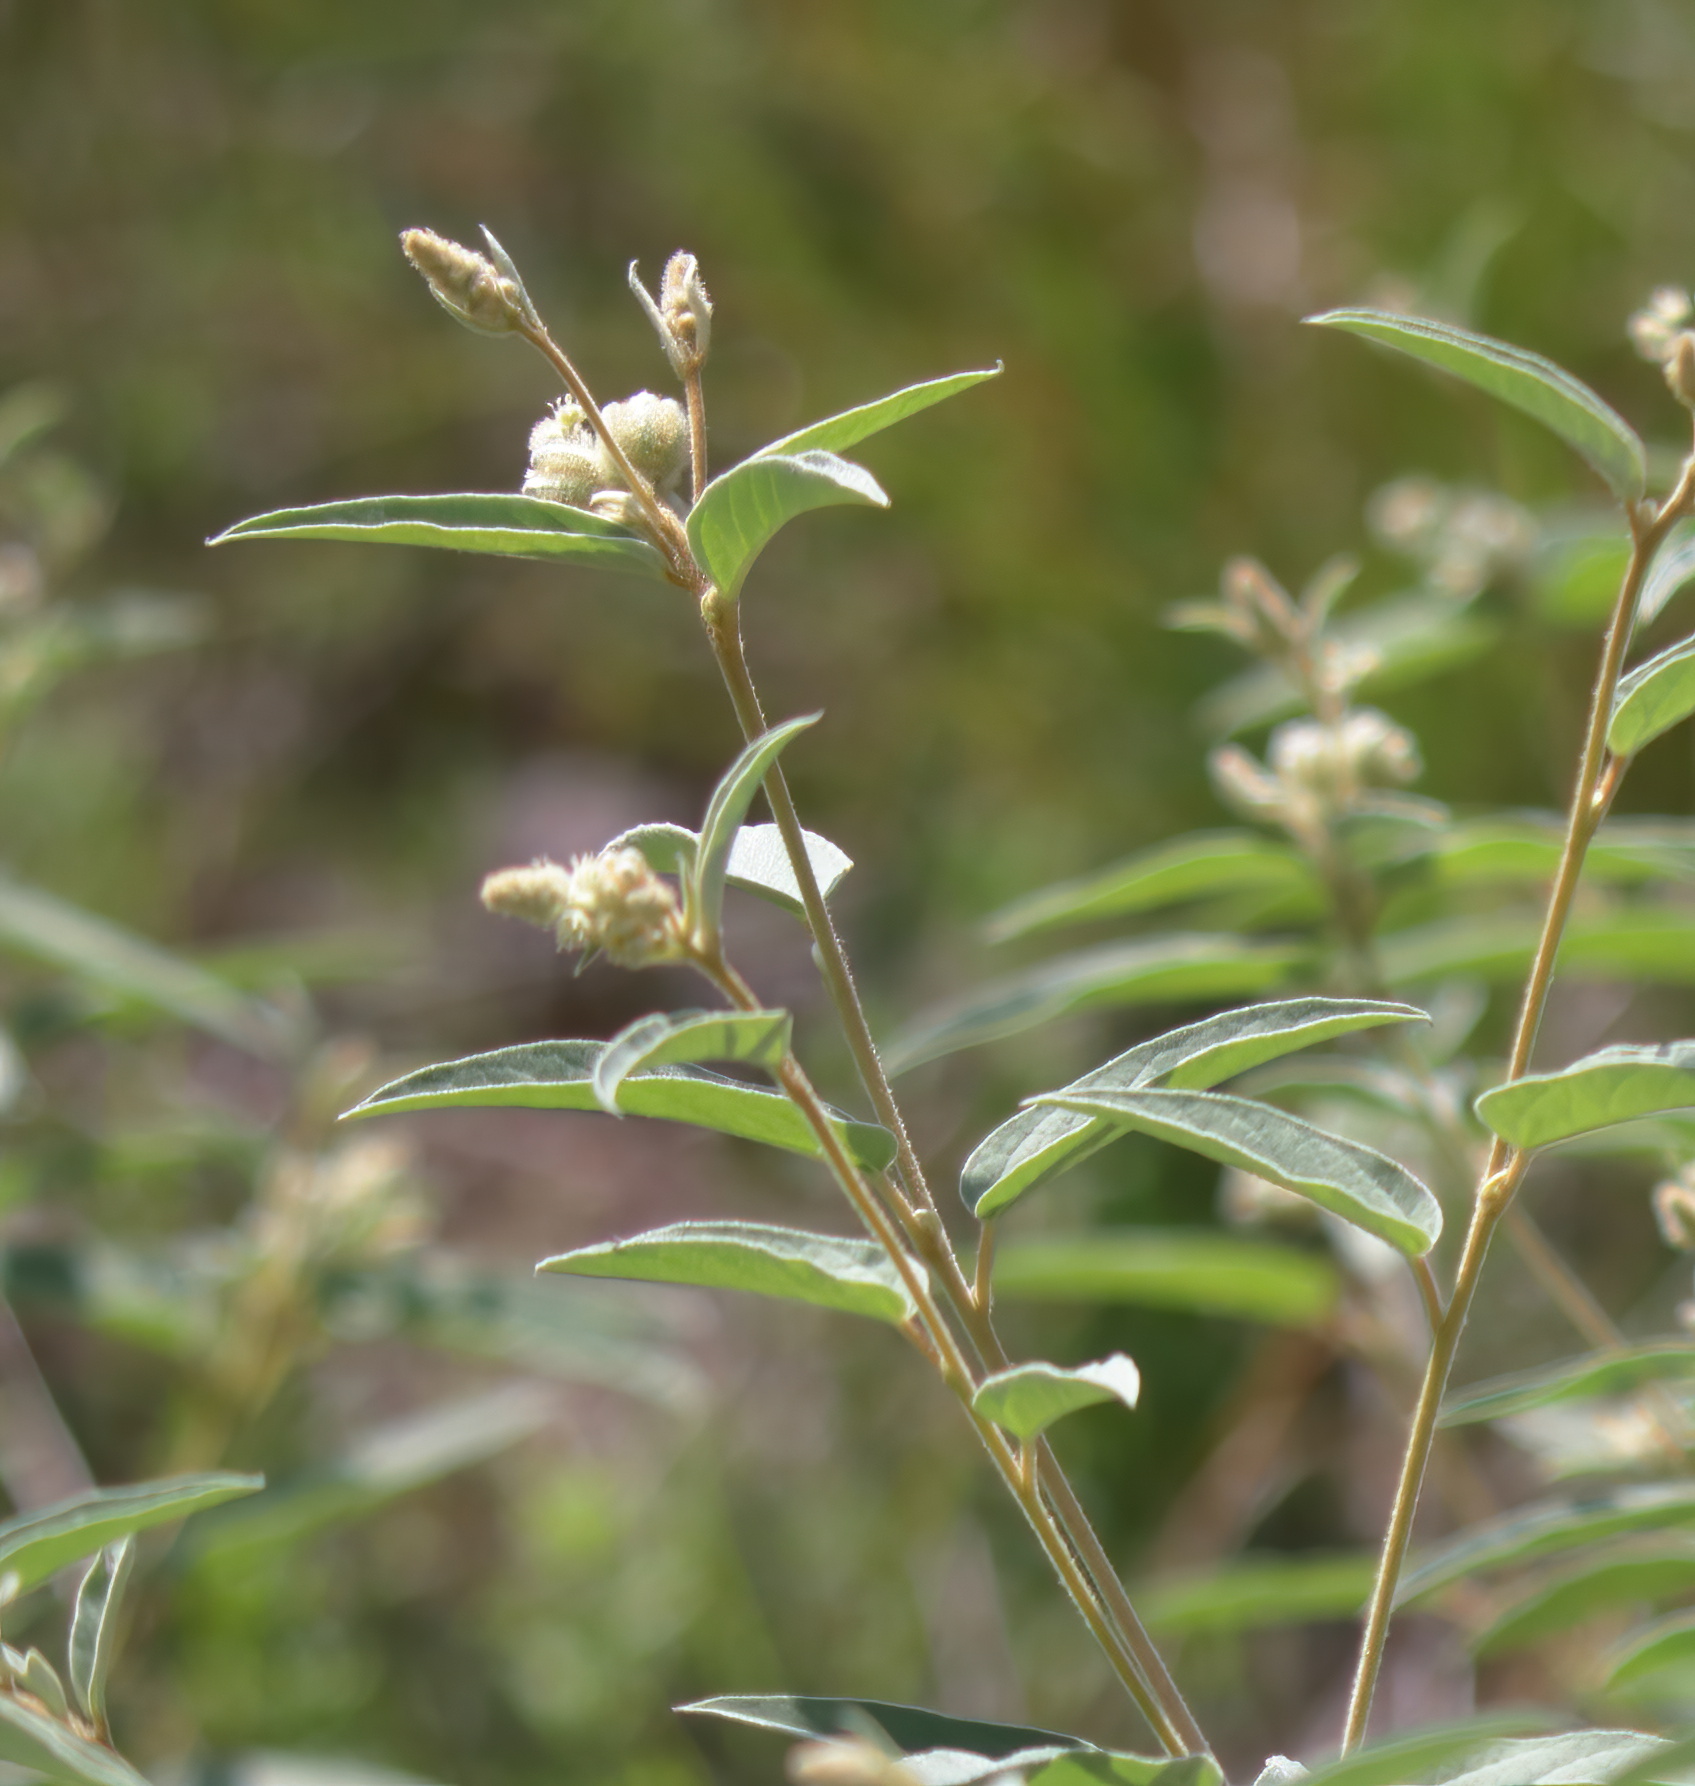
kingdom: Plantae
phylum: Tracheophyta
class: Magnoliopsida
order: Malpighiales
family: Euphorbiaceae
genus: Croton
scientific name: Croton lindheimeri
